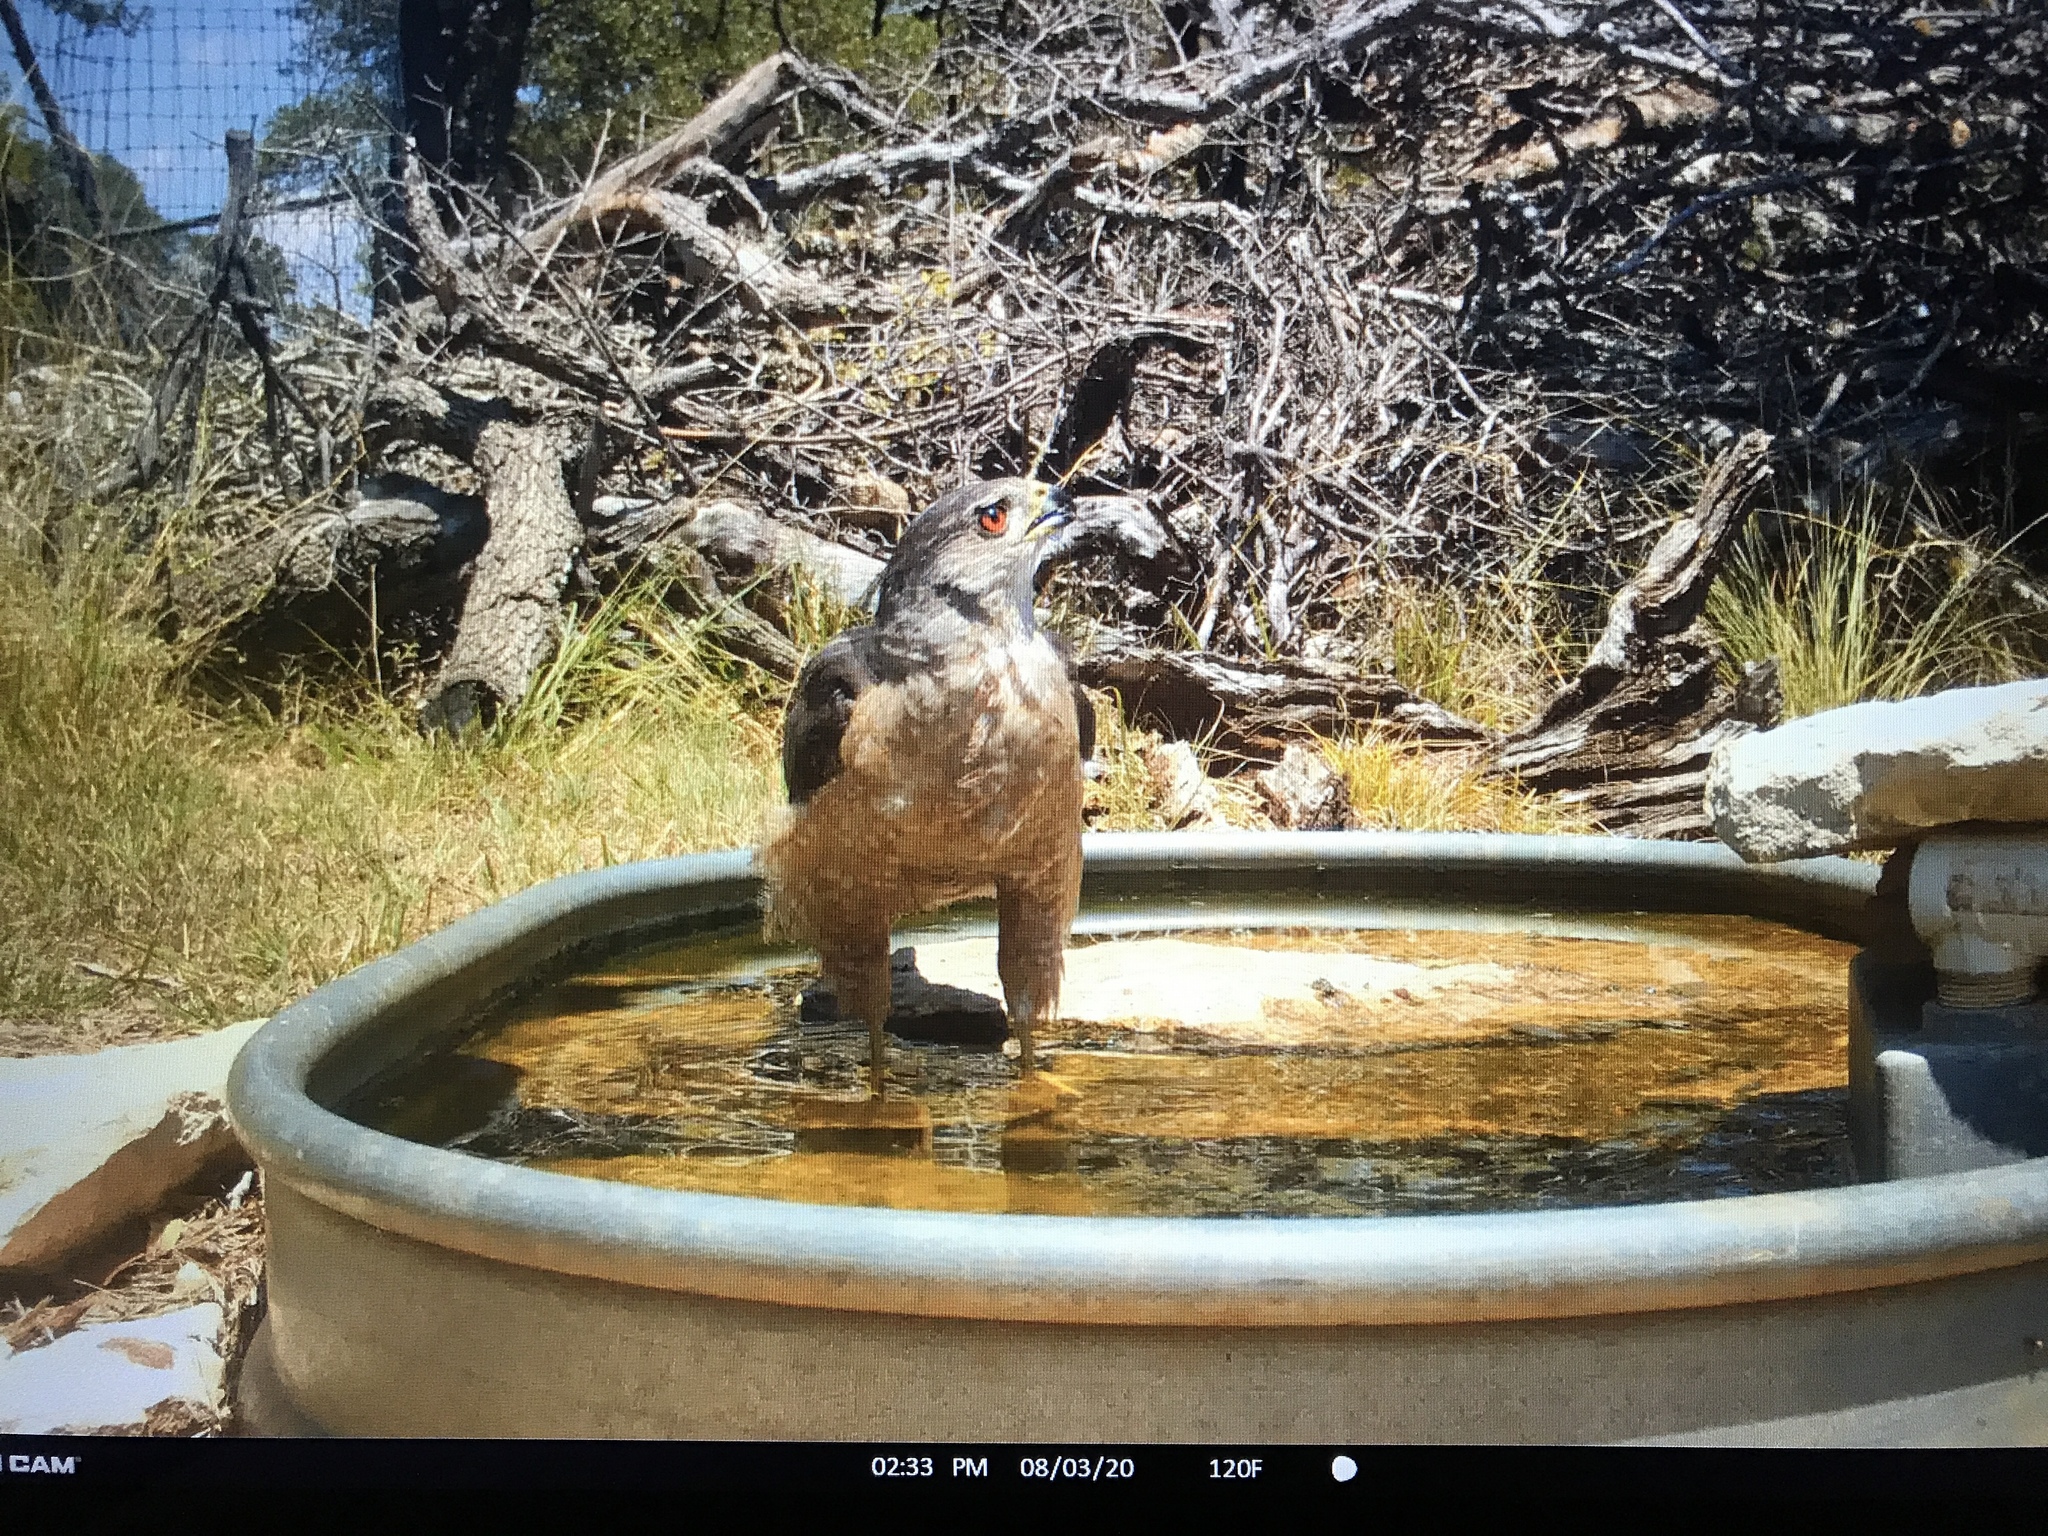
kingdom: Animalia
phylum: Chordata
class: Aves
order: Accipitriformes
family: Accipitridae
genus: Accipiter
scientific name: Accipiter cooperii
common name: Cooper's hawk
